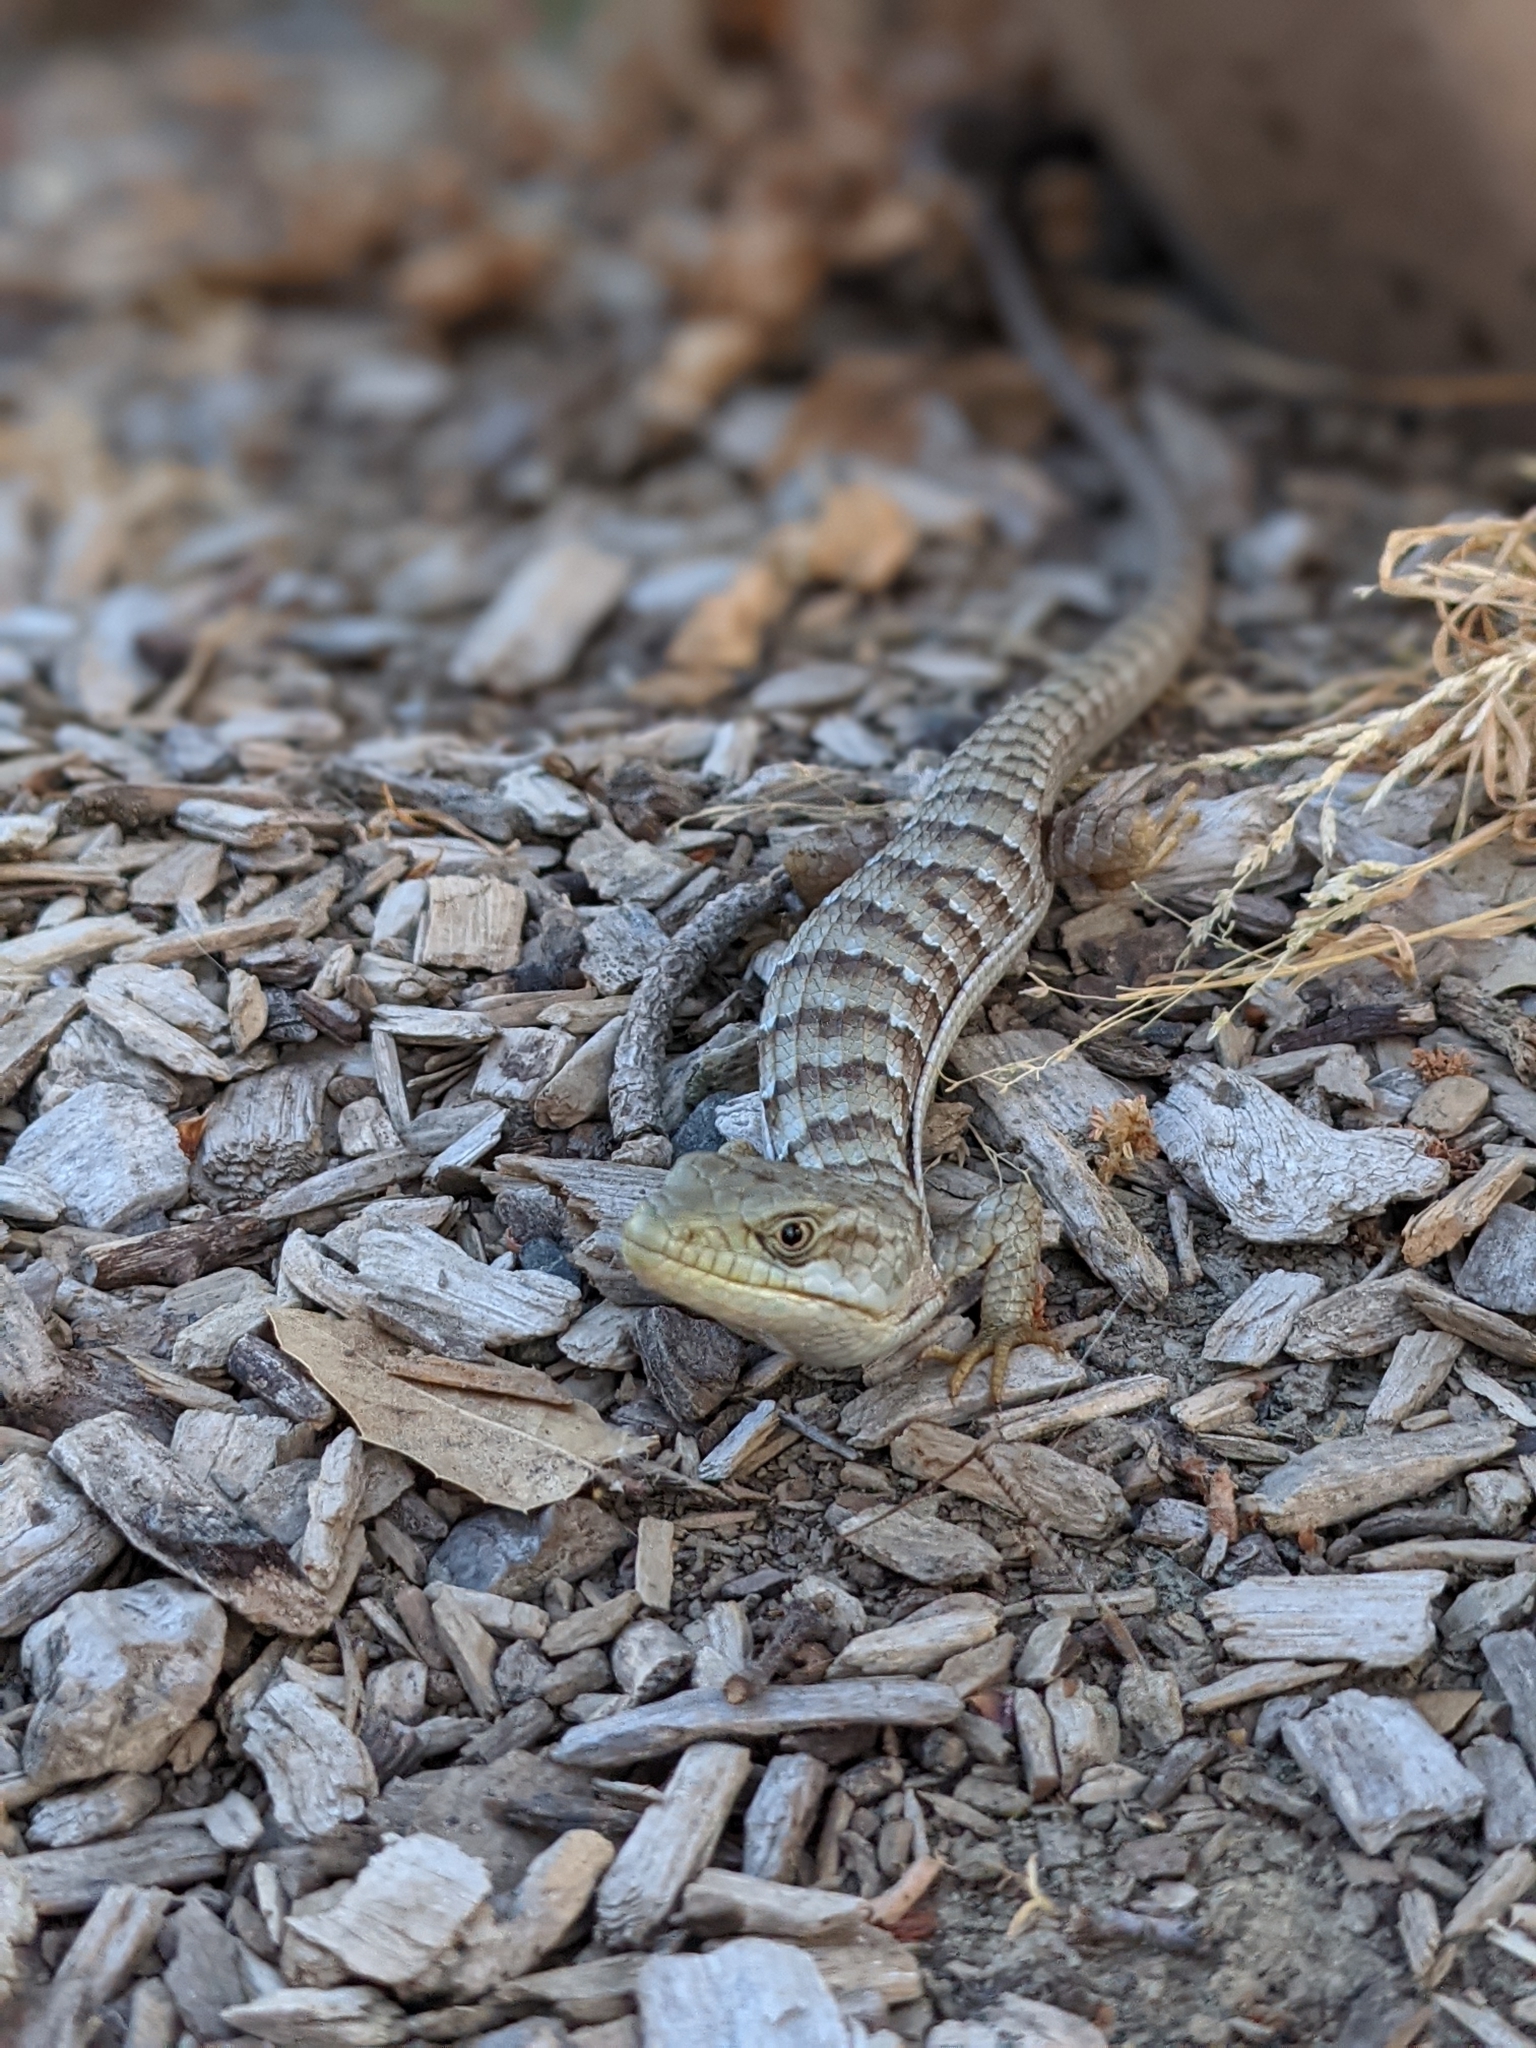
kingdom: Animalia
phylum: Chordata
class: Squamata
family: Anguidae
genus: Elgaria
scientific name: Elgaria multicarinata
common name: Southern alligator lizard
